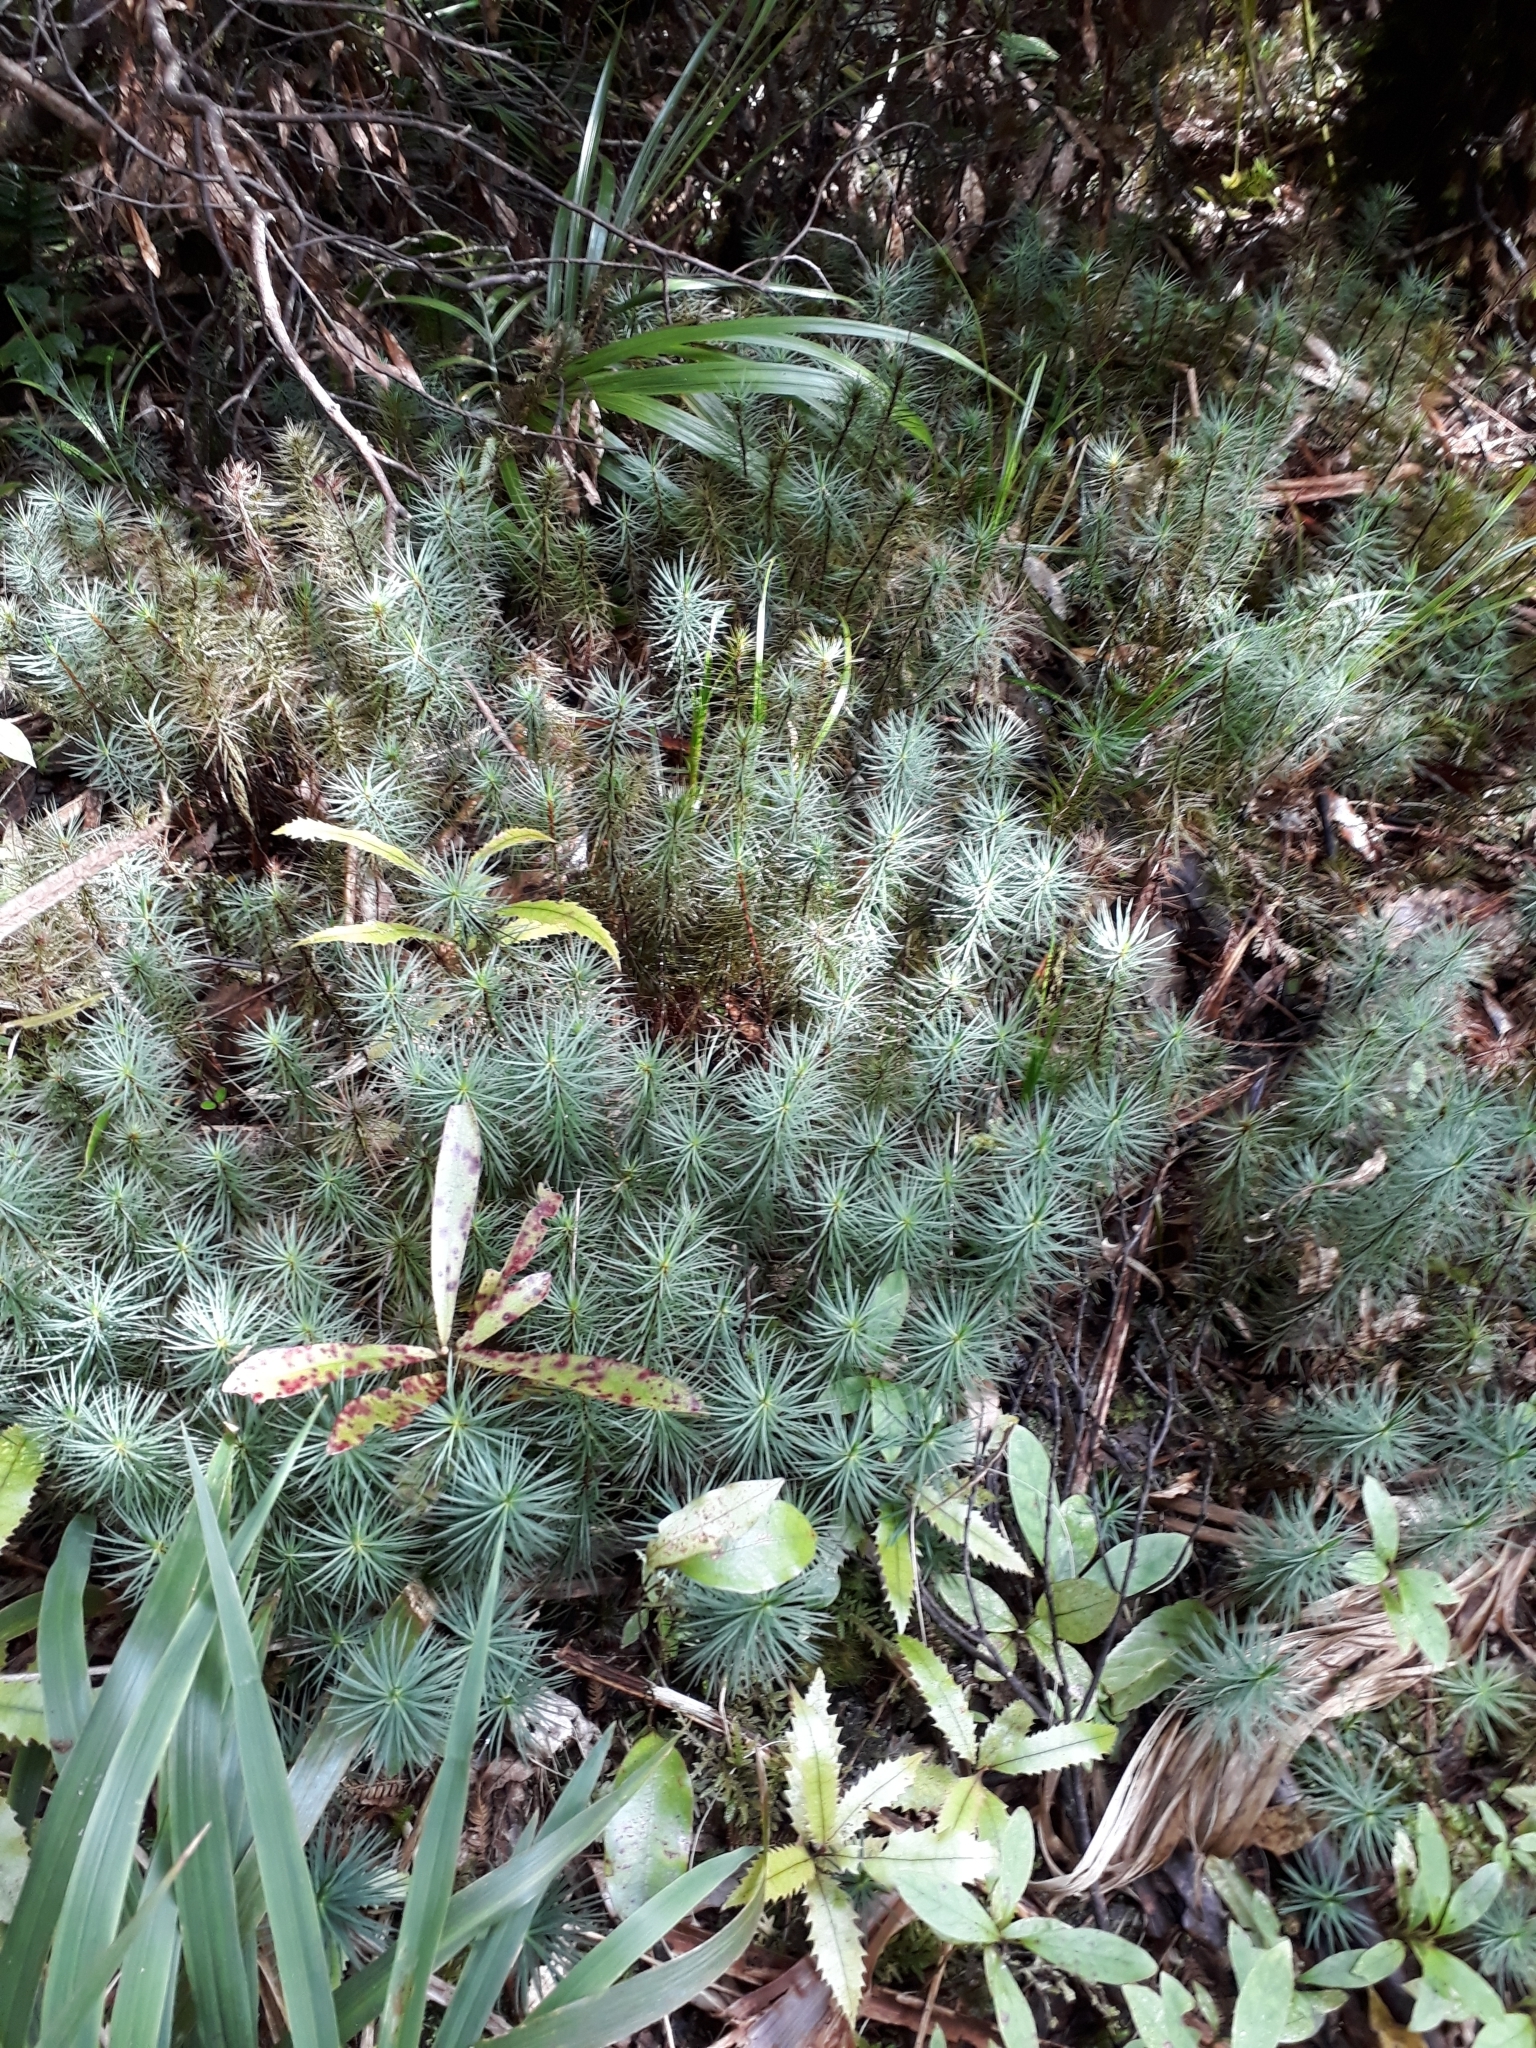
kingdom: Plantae
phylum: Bryophyta
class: Polytrichopsida
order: Polytrichales
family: Polytrichaceae
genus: Dawsonia
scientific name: Dawsonia superba
